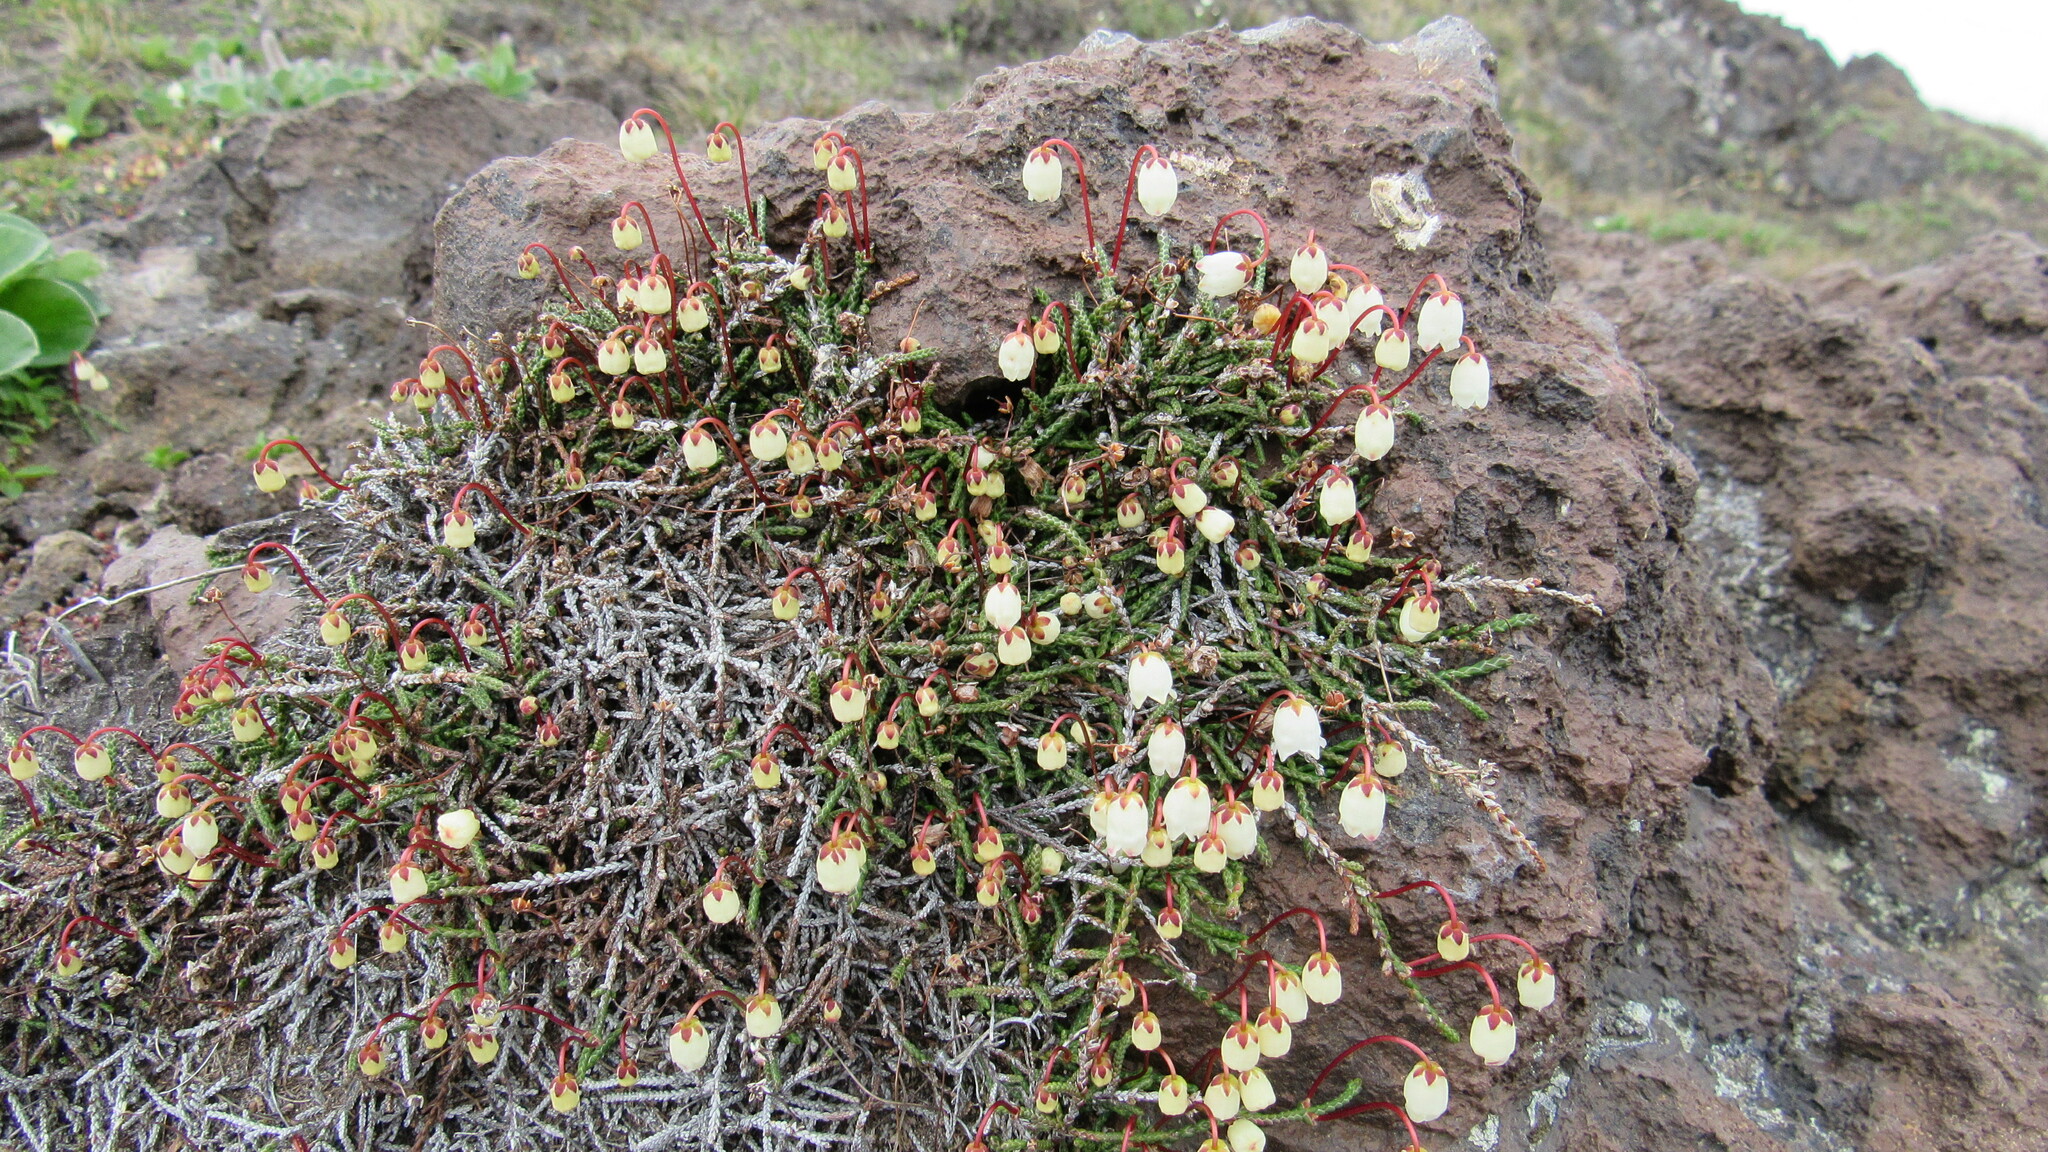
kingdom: Plantae
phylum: Tracheophyta
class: Magnoliopsida
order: Ericales
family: Ericaceae
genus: Cassiope
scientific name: Cassiope lycopodioides
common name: Clubmoss mountain heather
